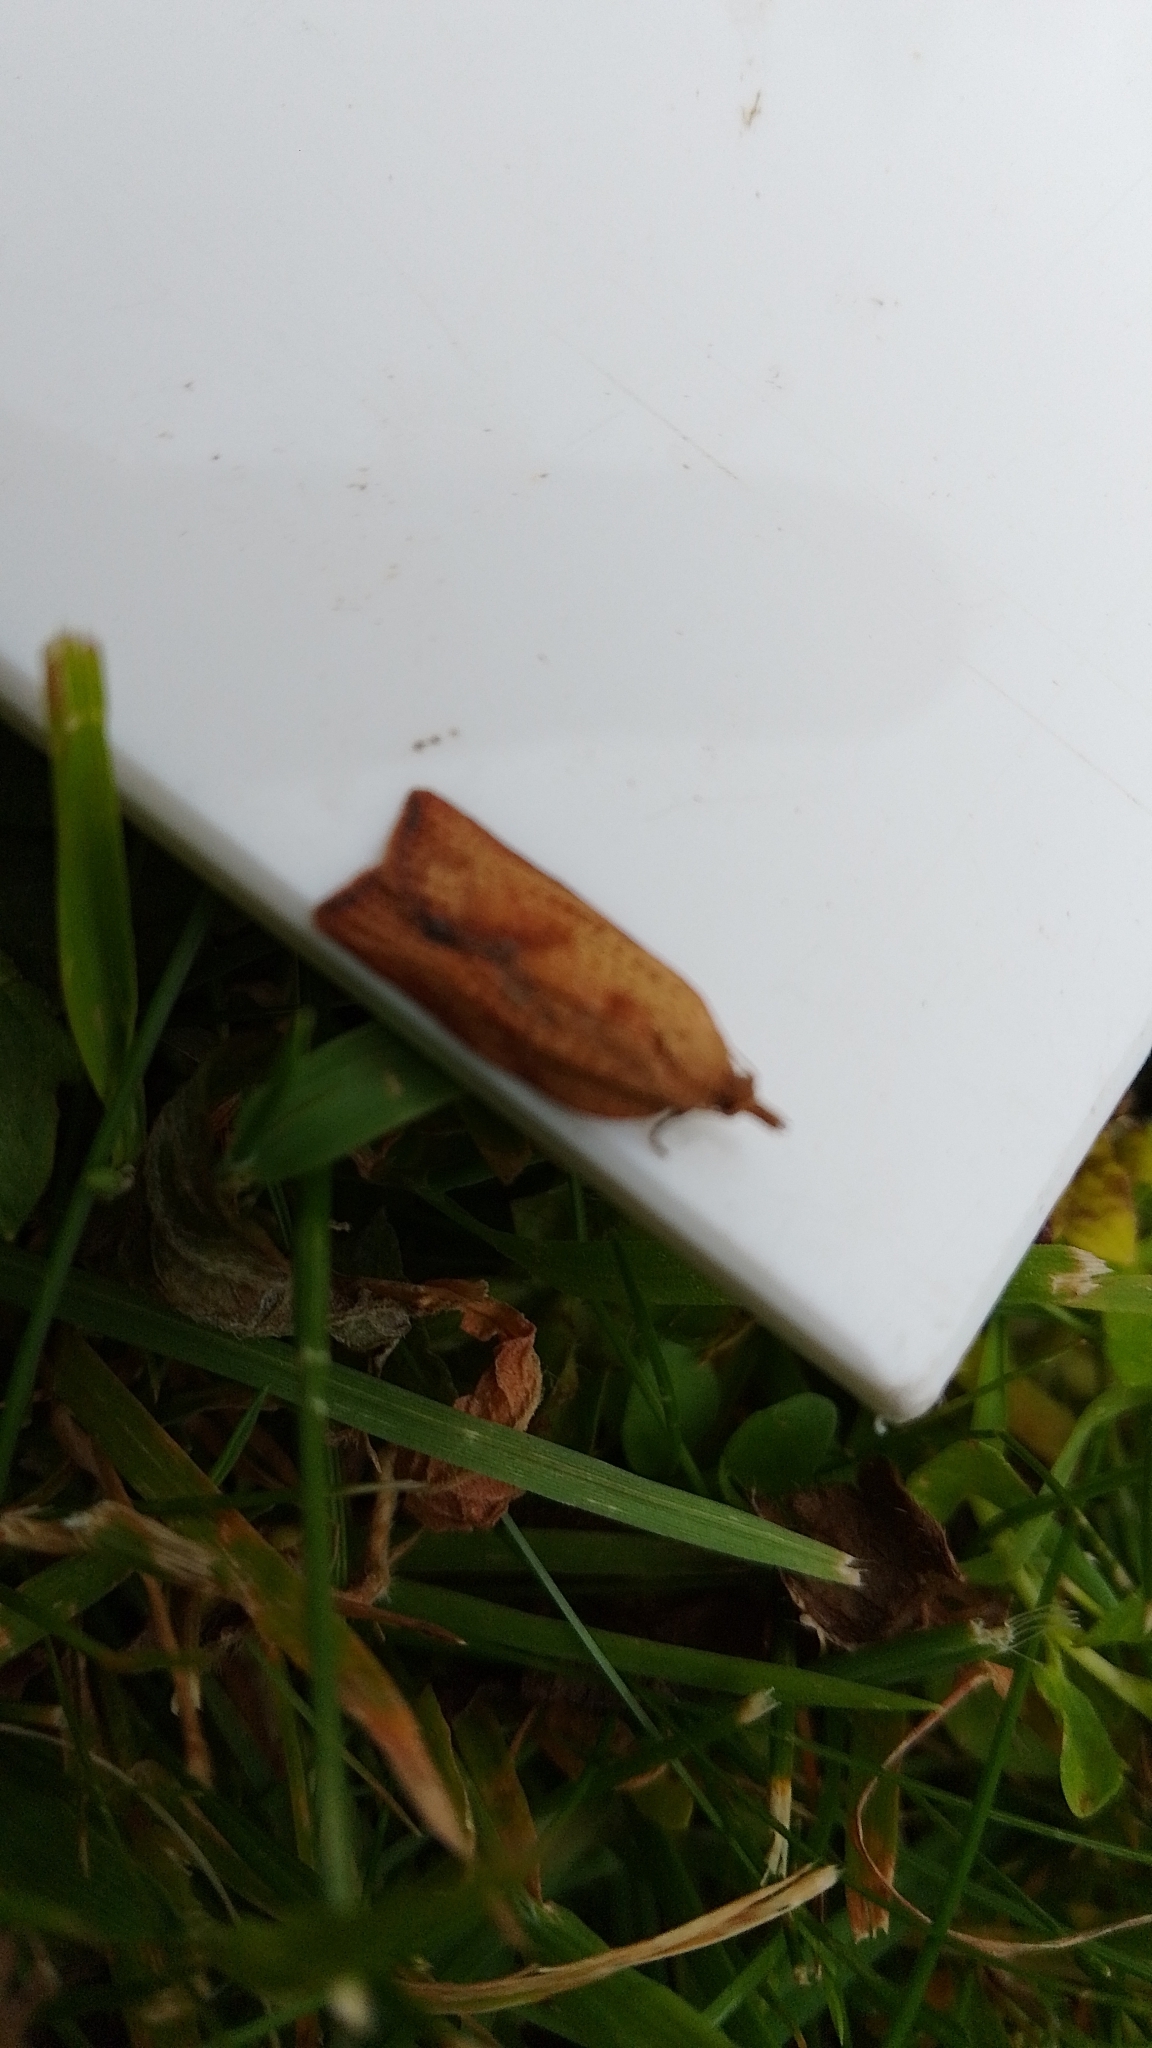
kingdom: Animalia
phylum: Arthropoda
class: Insecta
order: Lepidoptera
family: Tortricidae
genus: Epiphyas
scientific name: Epiphyas postvittana
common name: Light brown apple moth
